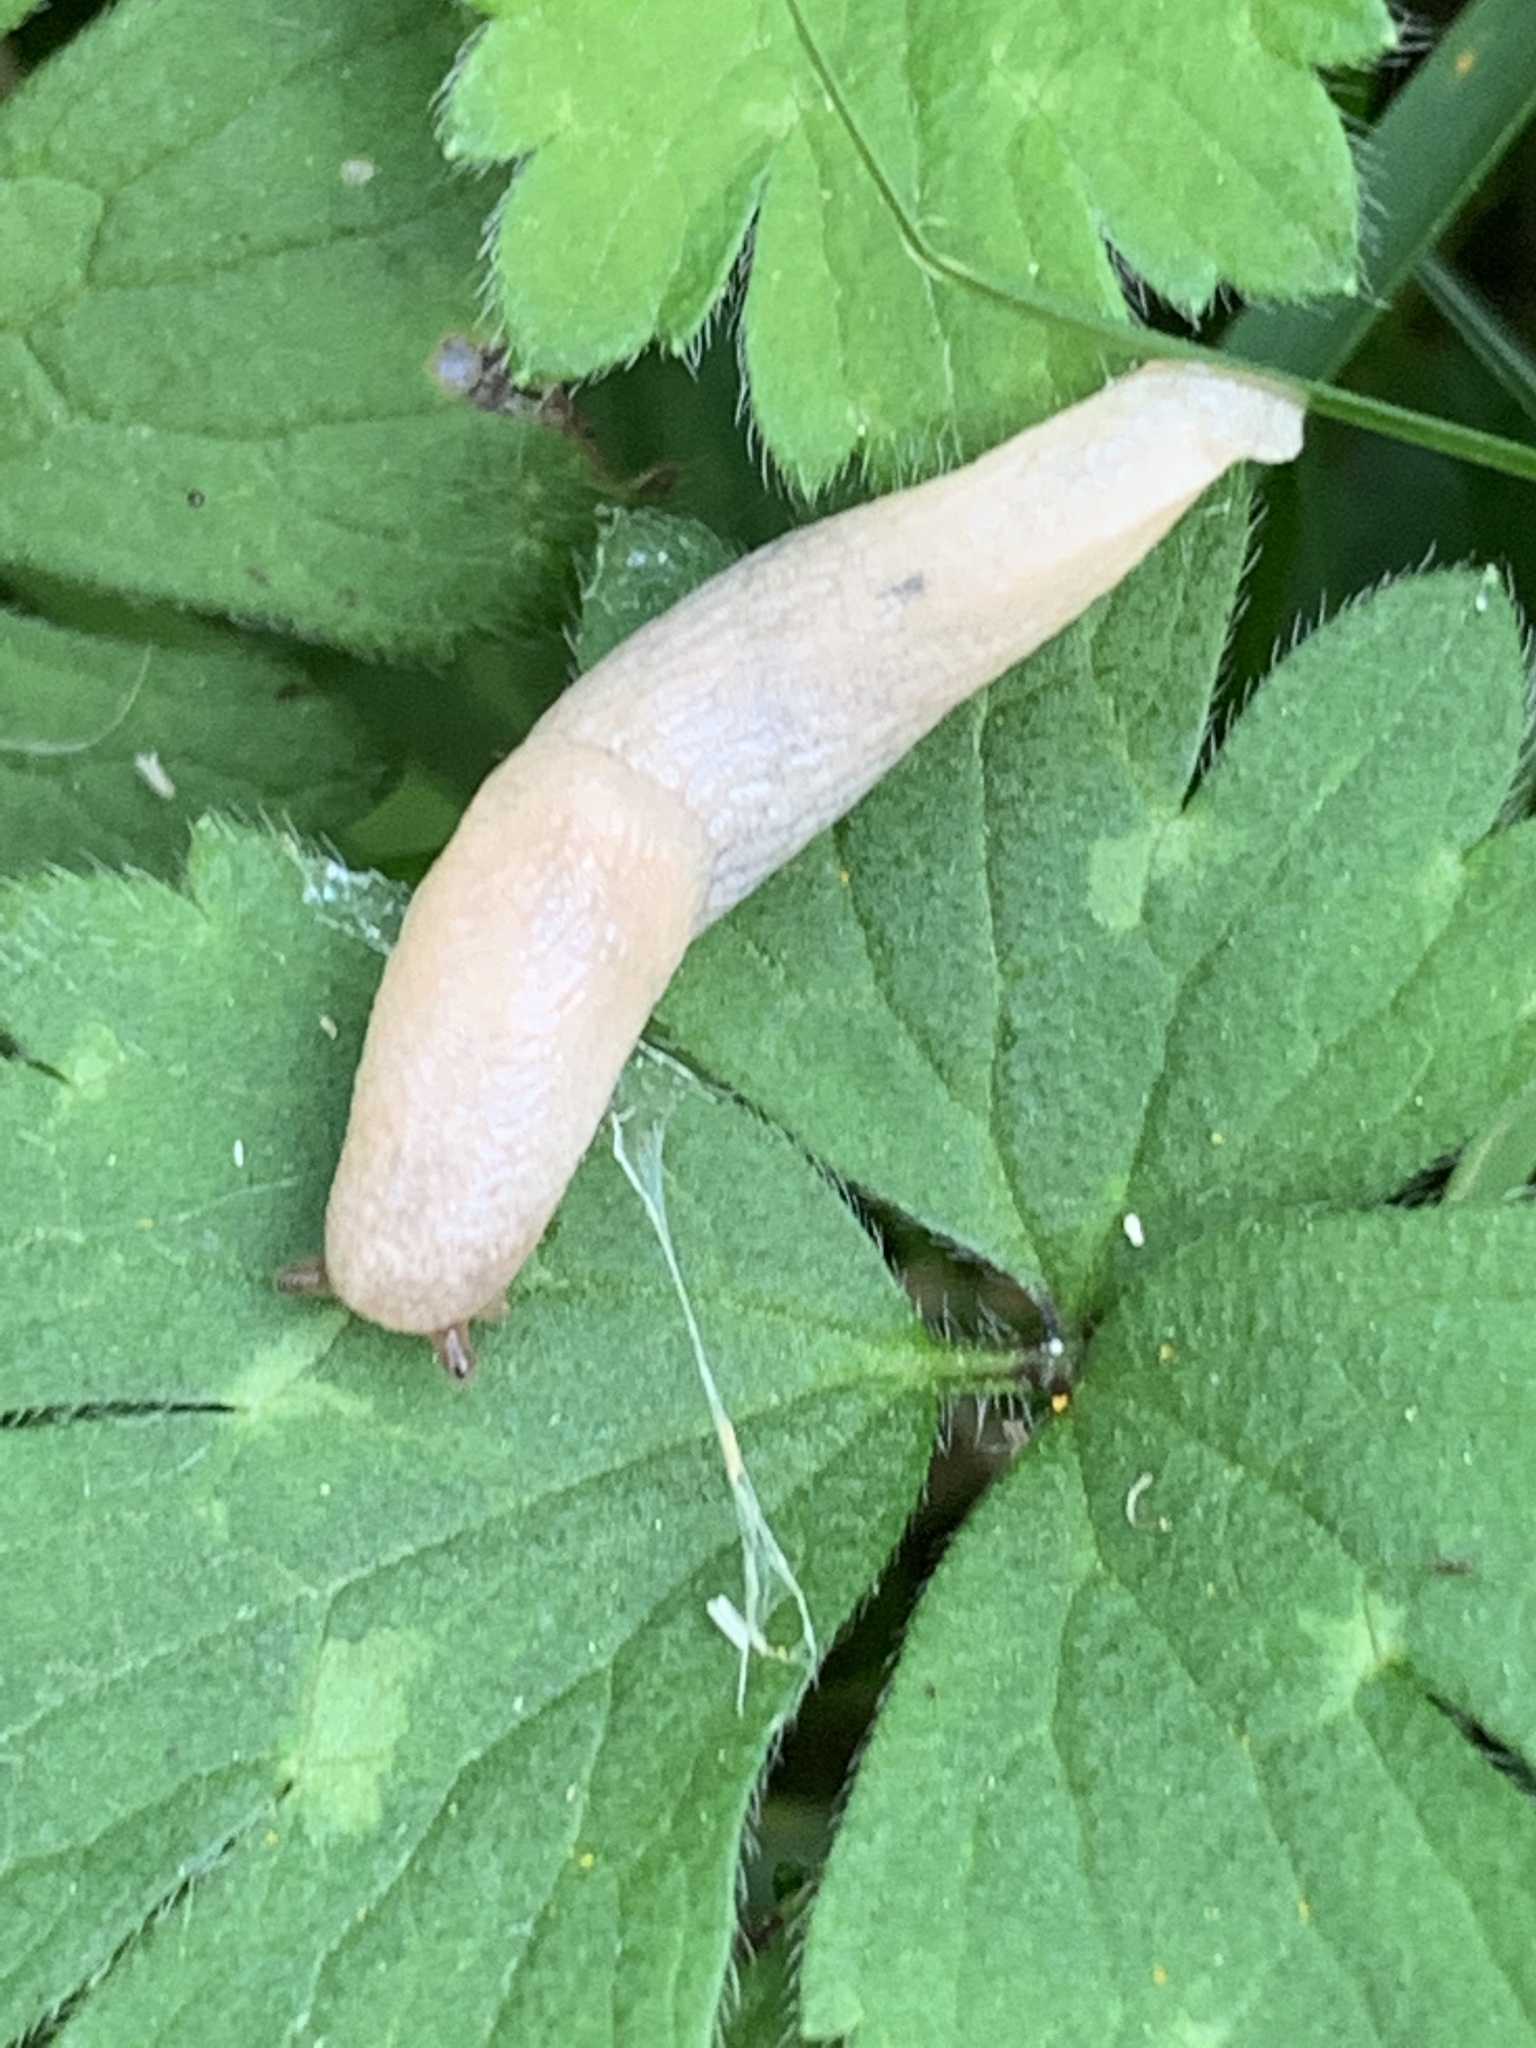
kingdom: Animalia
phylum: Mollusca
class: Gastropoda
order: Stylommatophora
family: Agriolimacidae
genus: Deroceras
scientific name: Deroceras reticulatum
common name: Gray field slug
